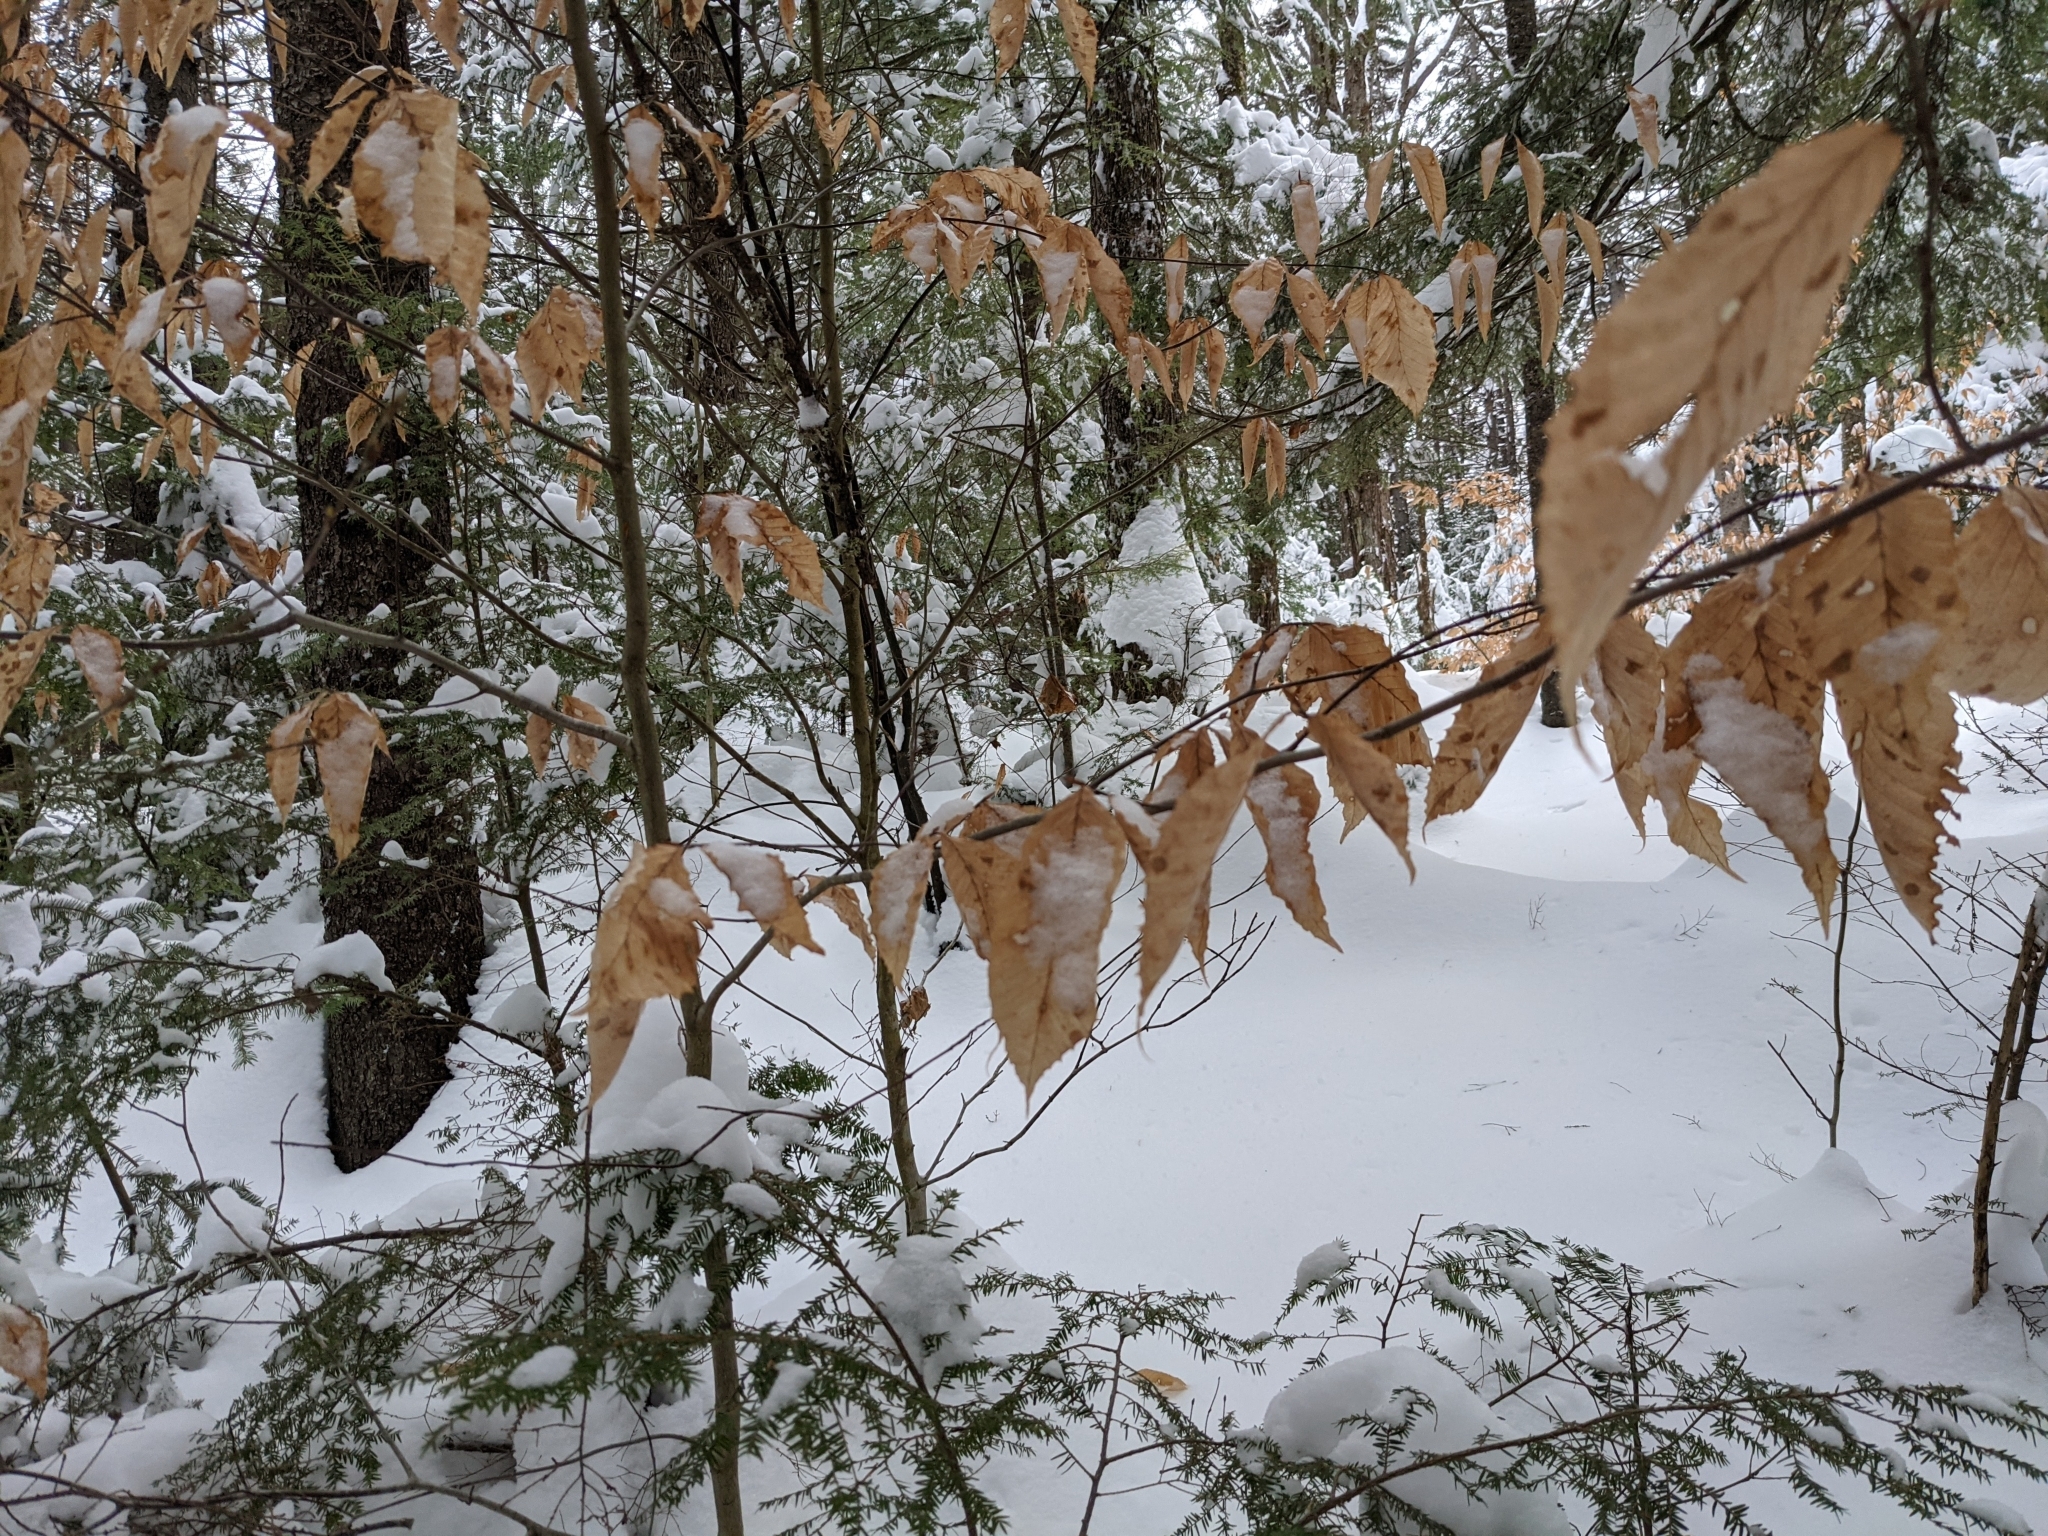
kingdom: Plantae
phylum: Tracheophyta
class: Magnoliopsida
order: Fagales
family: Fagaceae
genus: Fagus
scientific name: Fagus grandifolia
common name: American beech
